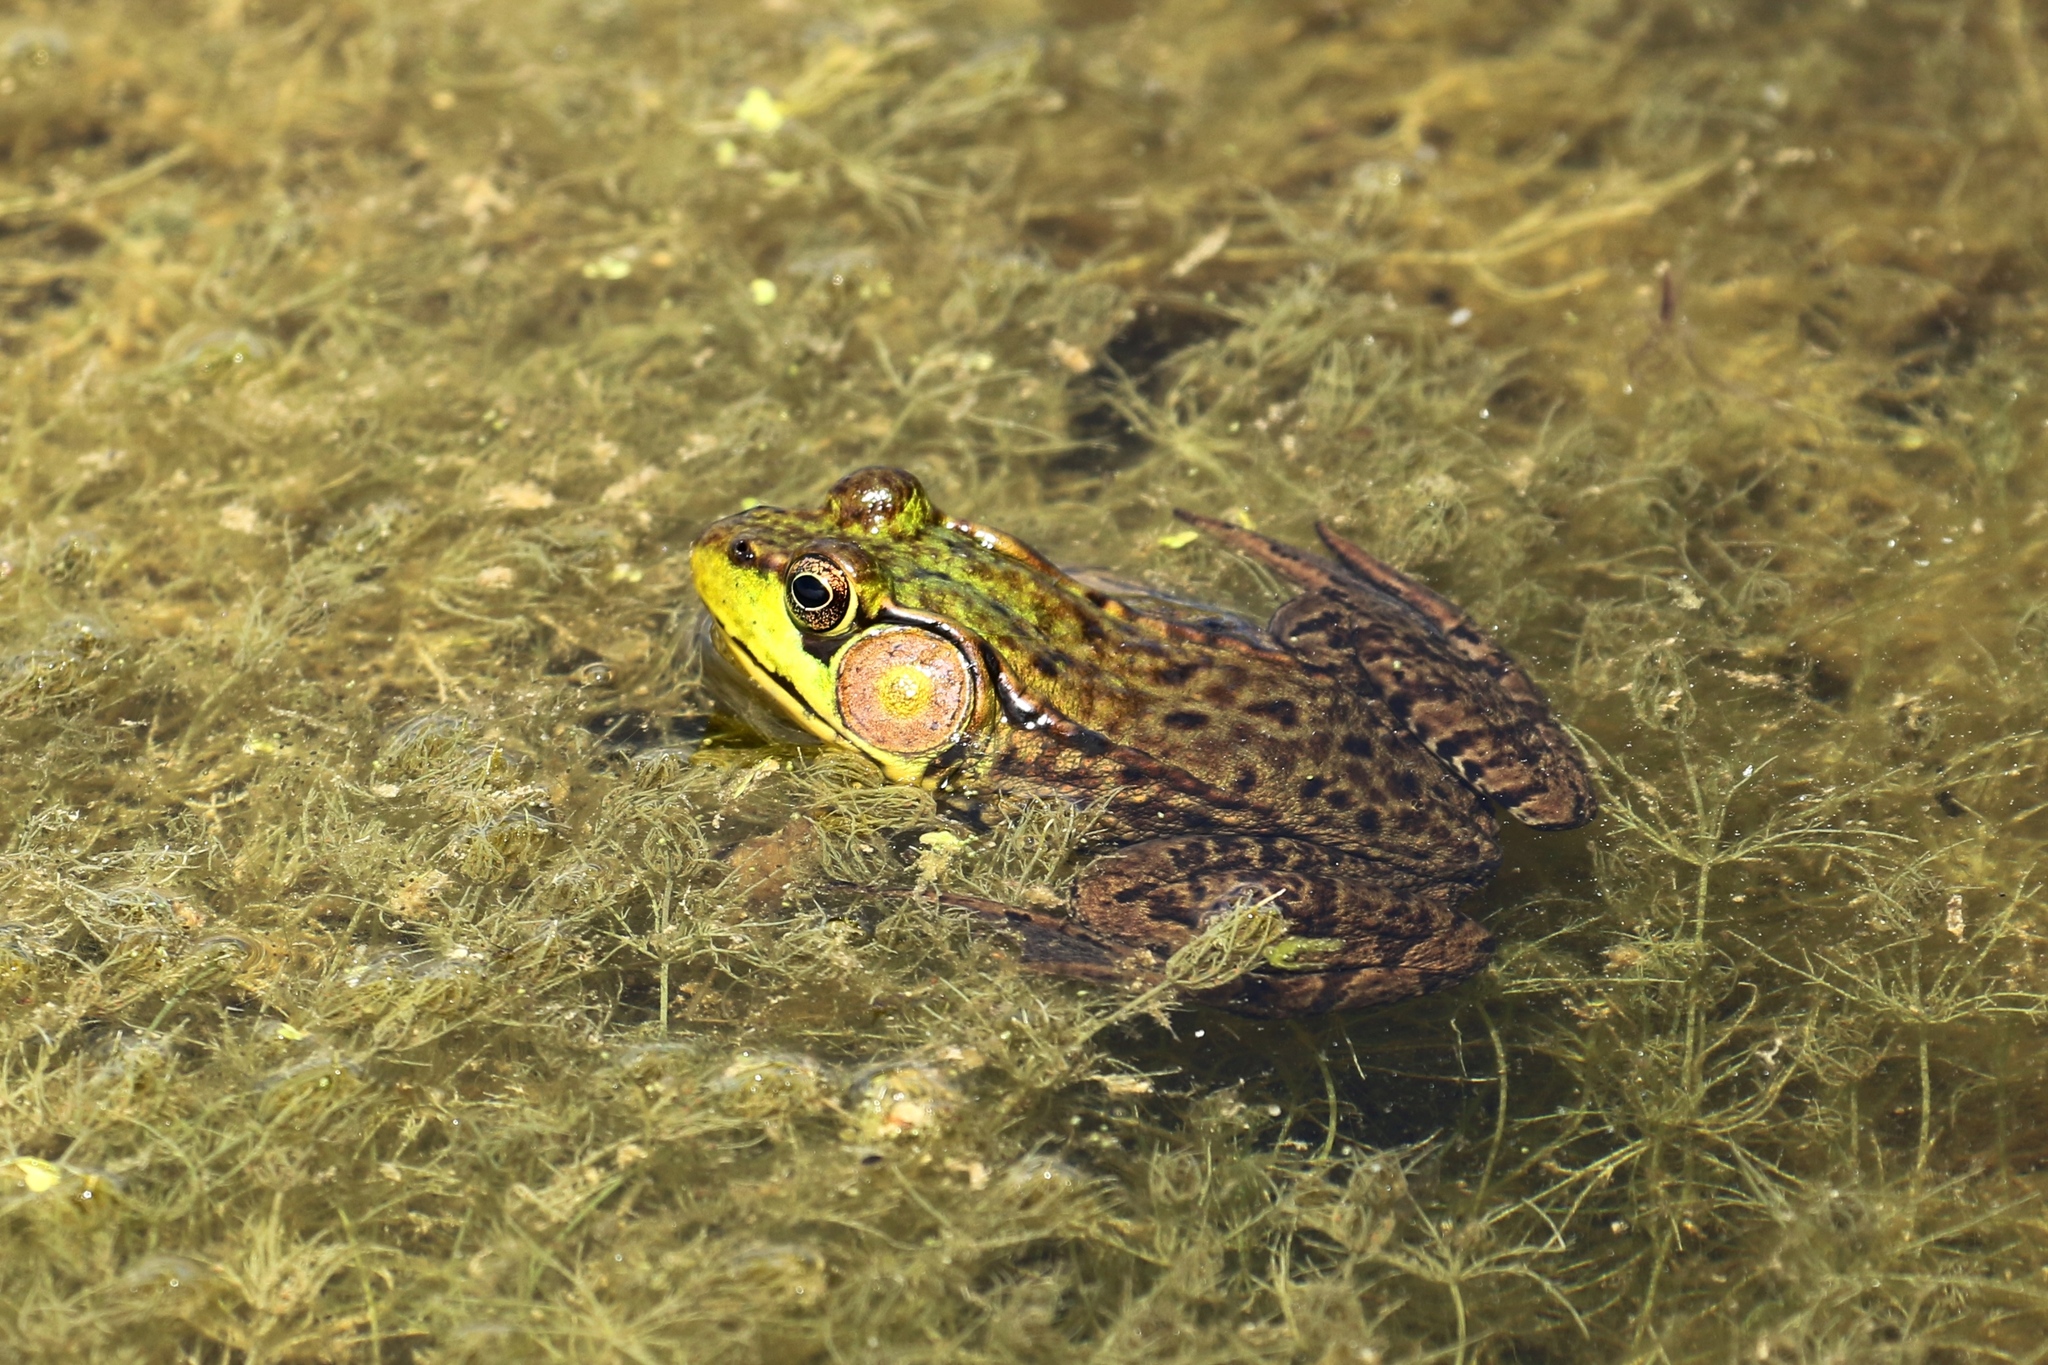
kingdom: Animalia
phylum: Chordata
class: Amphibia
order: Anura
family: Ranidae
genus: Lithobates
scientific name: Lithobates clamitans
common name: Green frog
